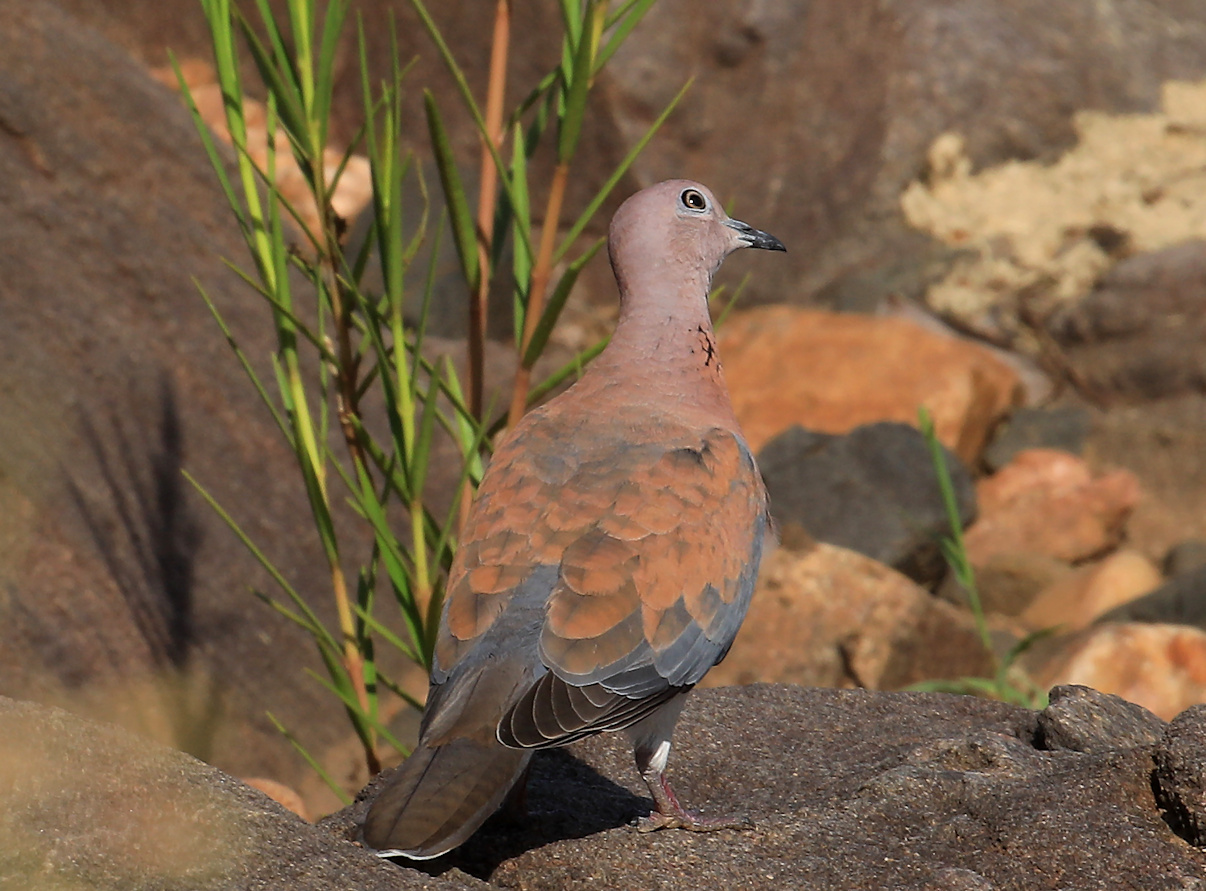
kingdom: Animalia
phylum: Chordata
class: Aves
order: Columbiformes
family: Columbidae
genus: Spilopelia
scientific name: Spilopelia senegalensis
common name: Laughing dove
